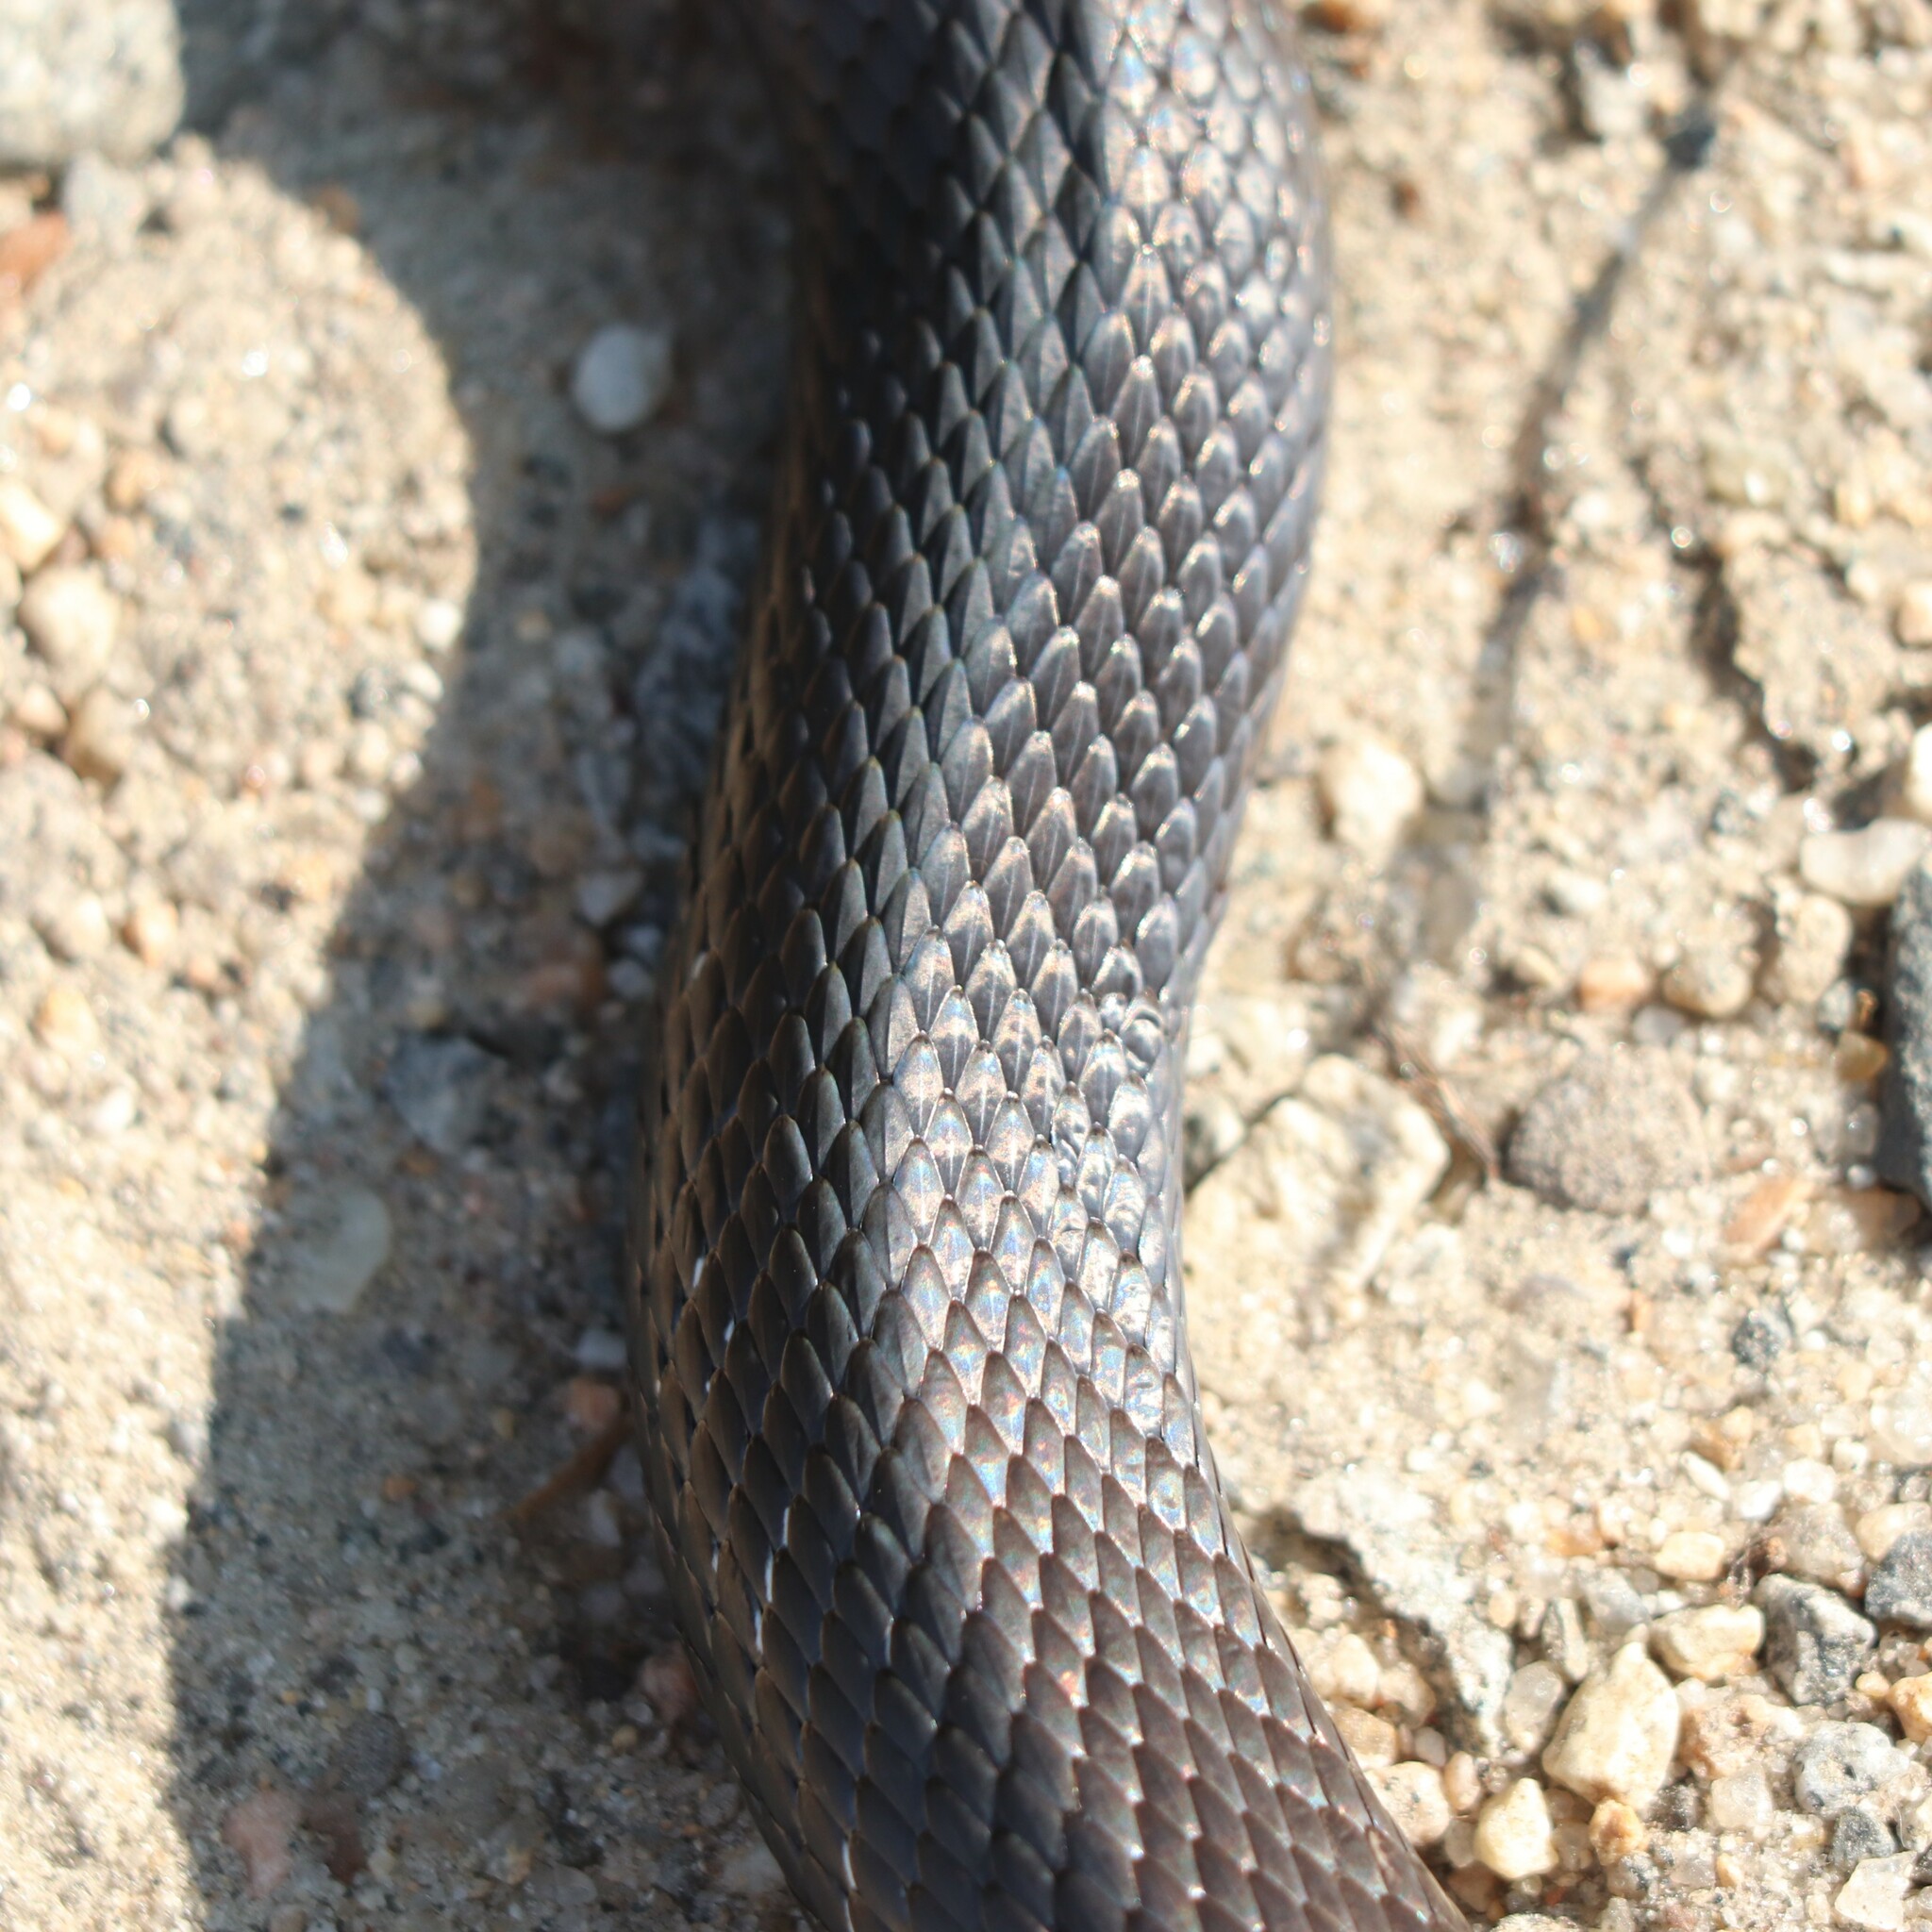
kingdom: Animalia
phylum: Chordata
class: Squamata
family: Colubridae
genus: Pantherophis
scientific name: Pantherophis alleghaniensis
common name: Eastern rat snake
